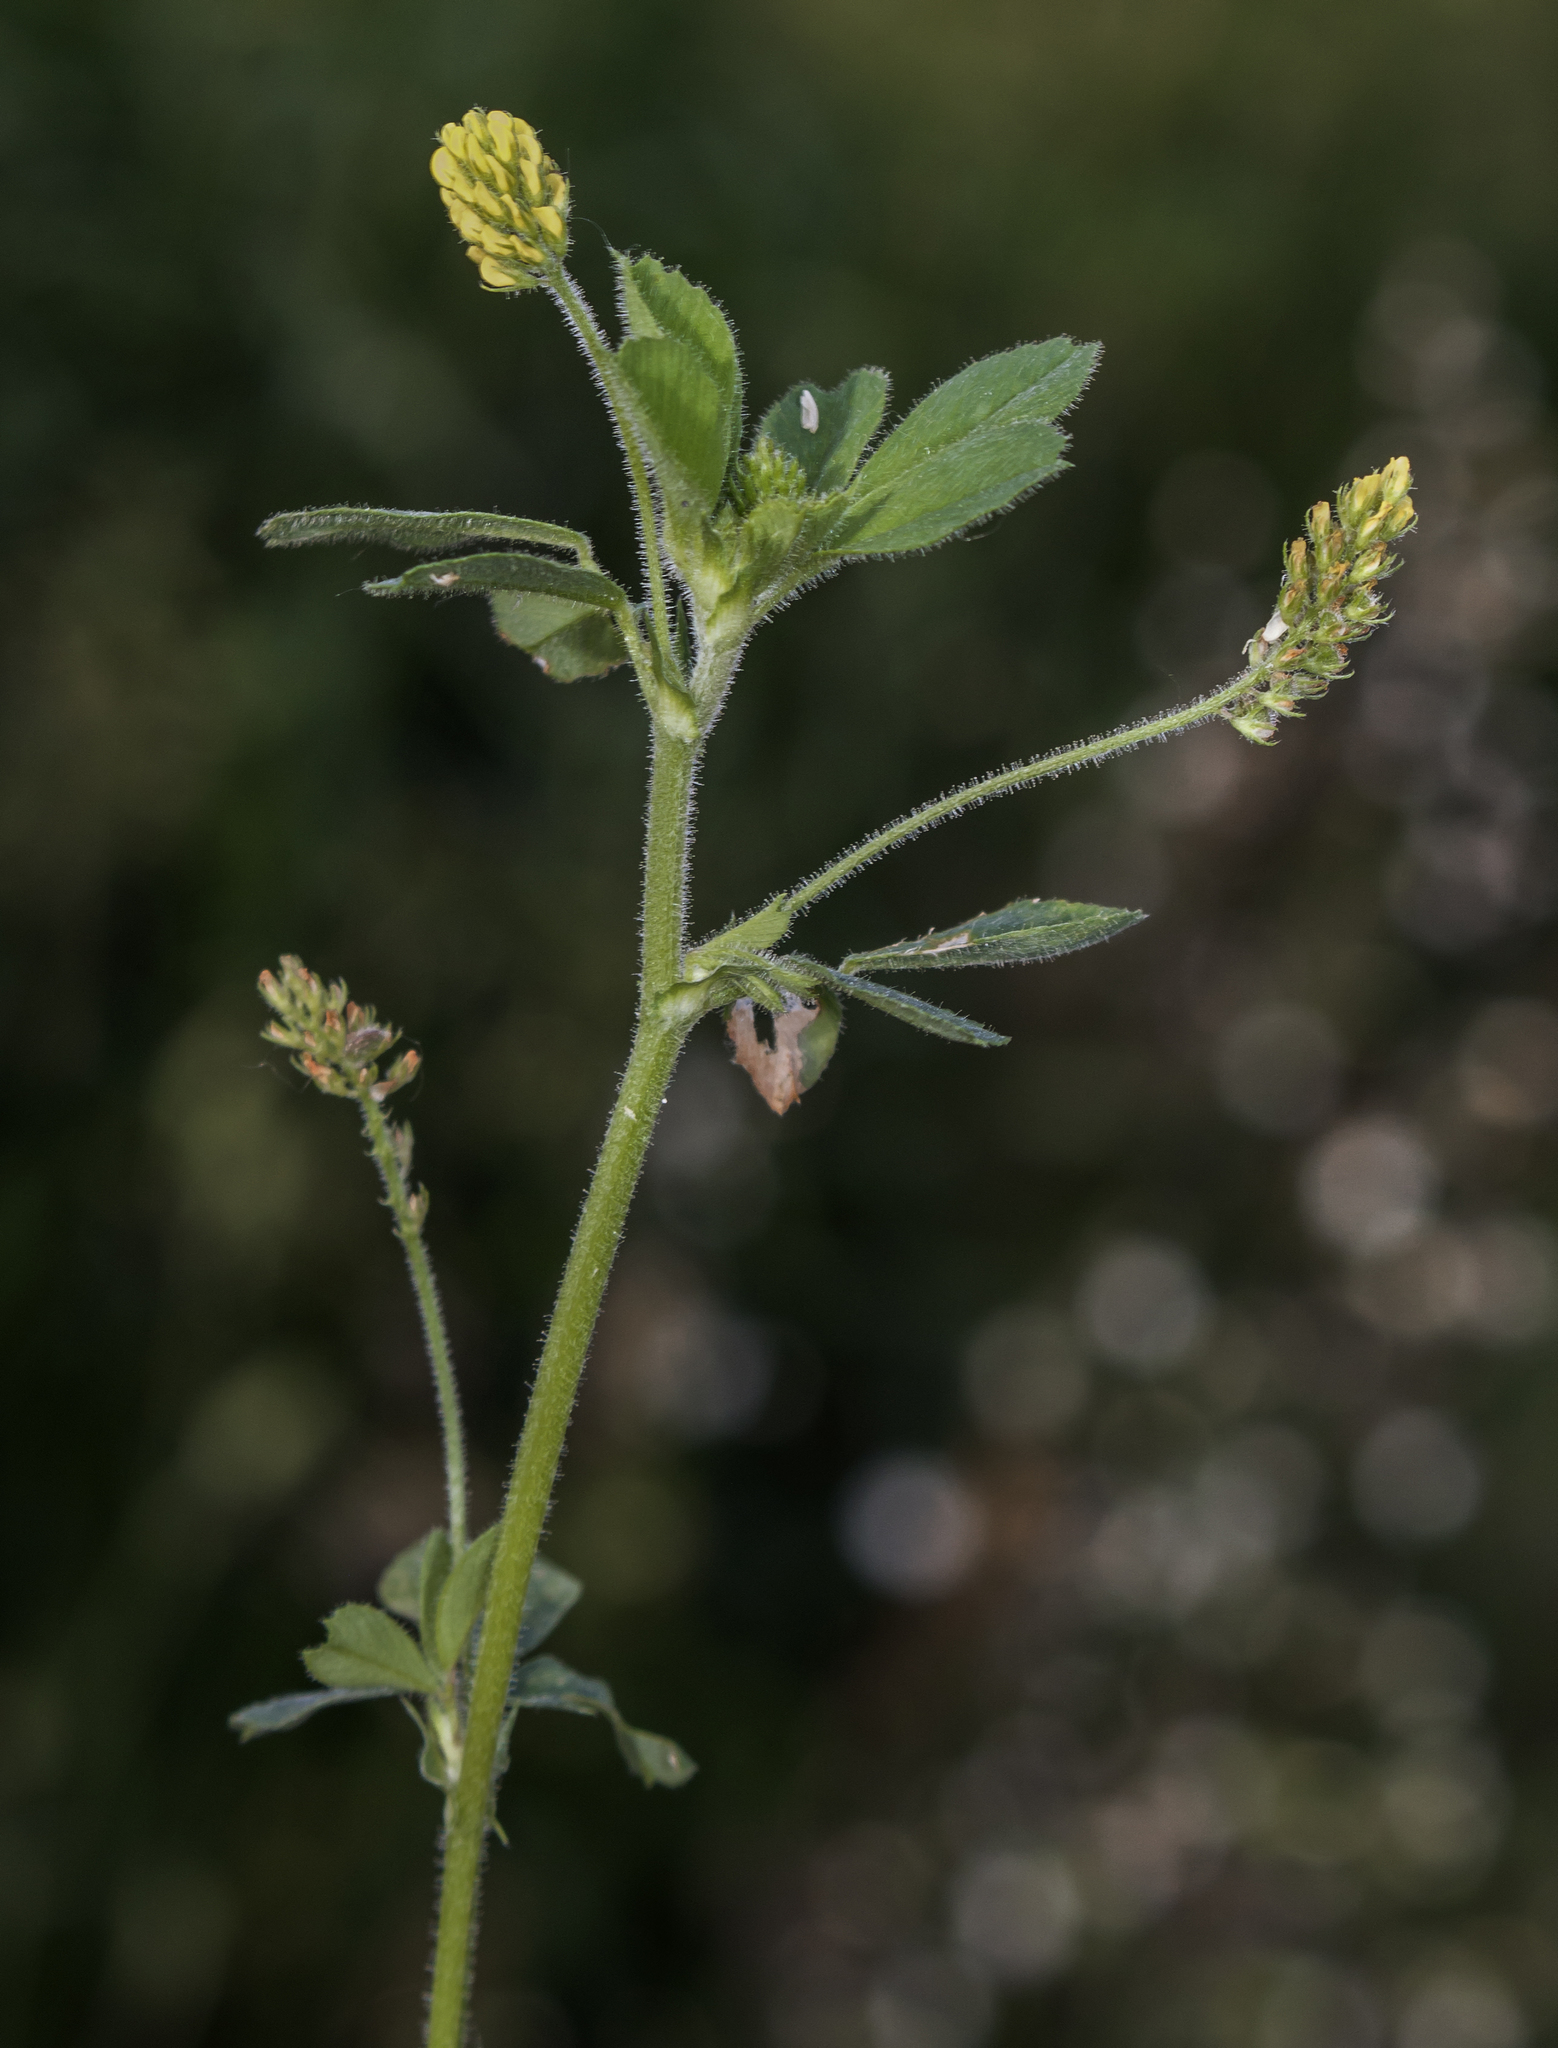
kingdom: Plantae
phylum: Tracheophyta
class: Magnoliopsida
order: Fabales
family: Fabaceae
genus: Medicago
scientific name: Medicago lupulina
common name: Black medick
